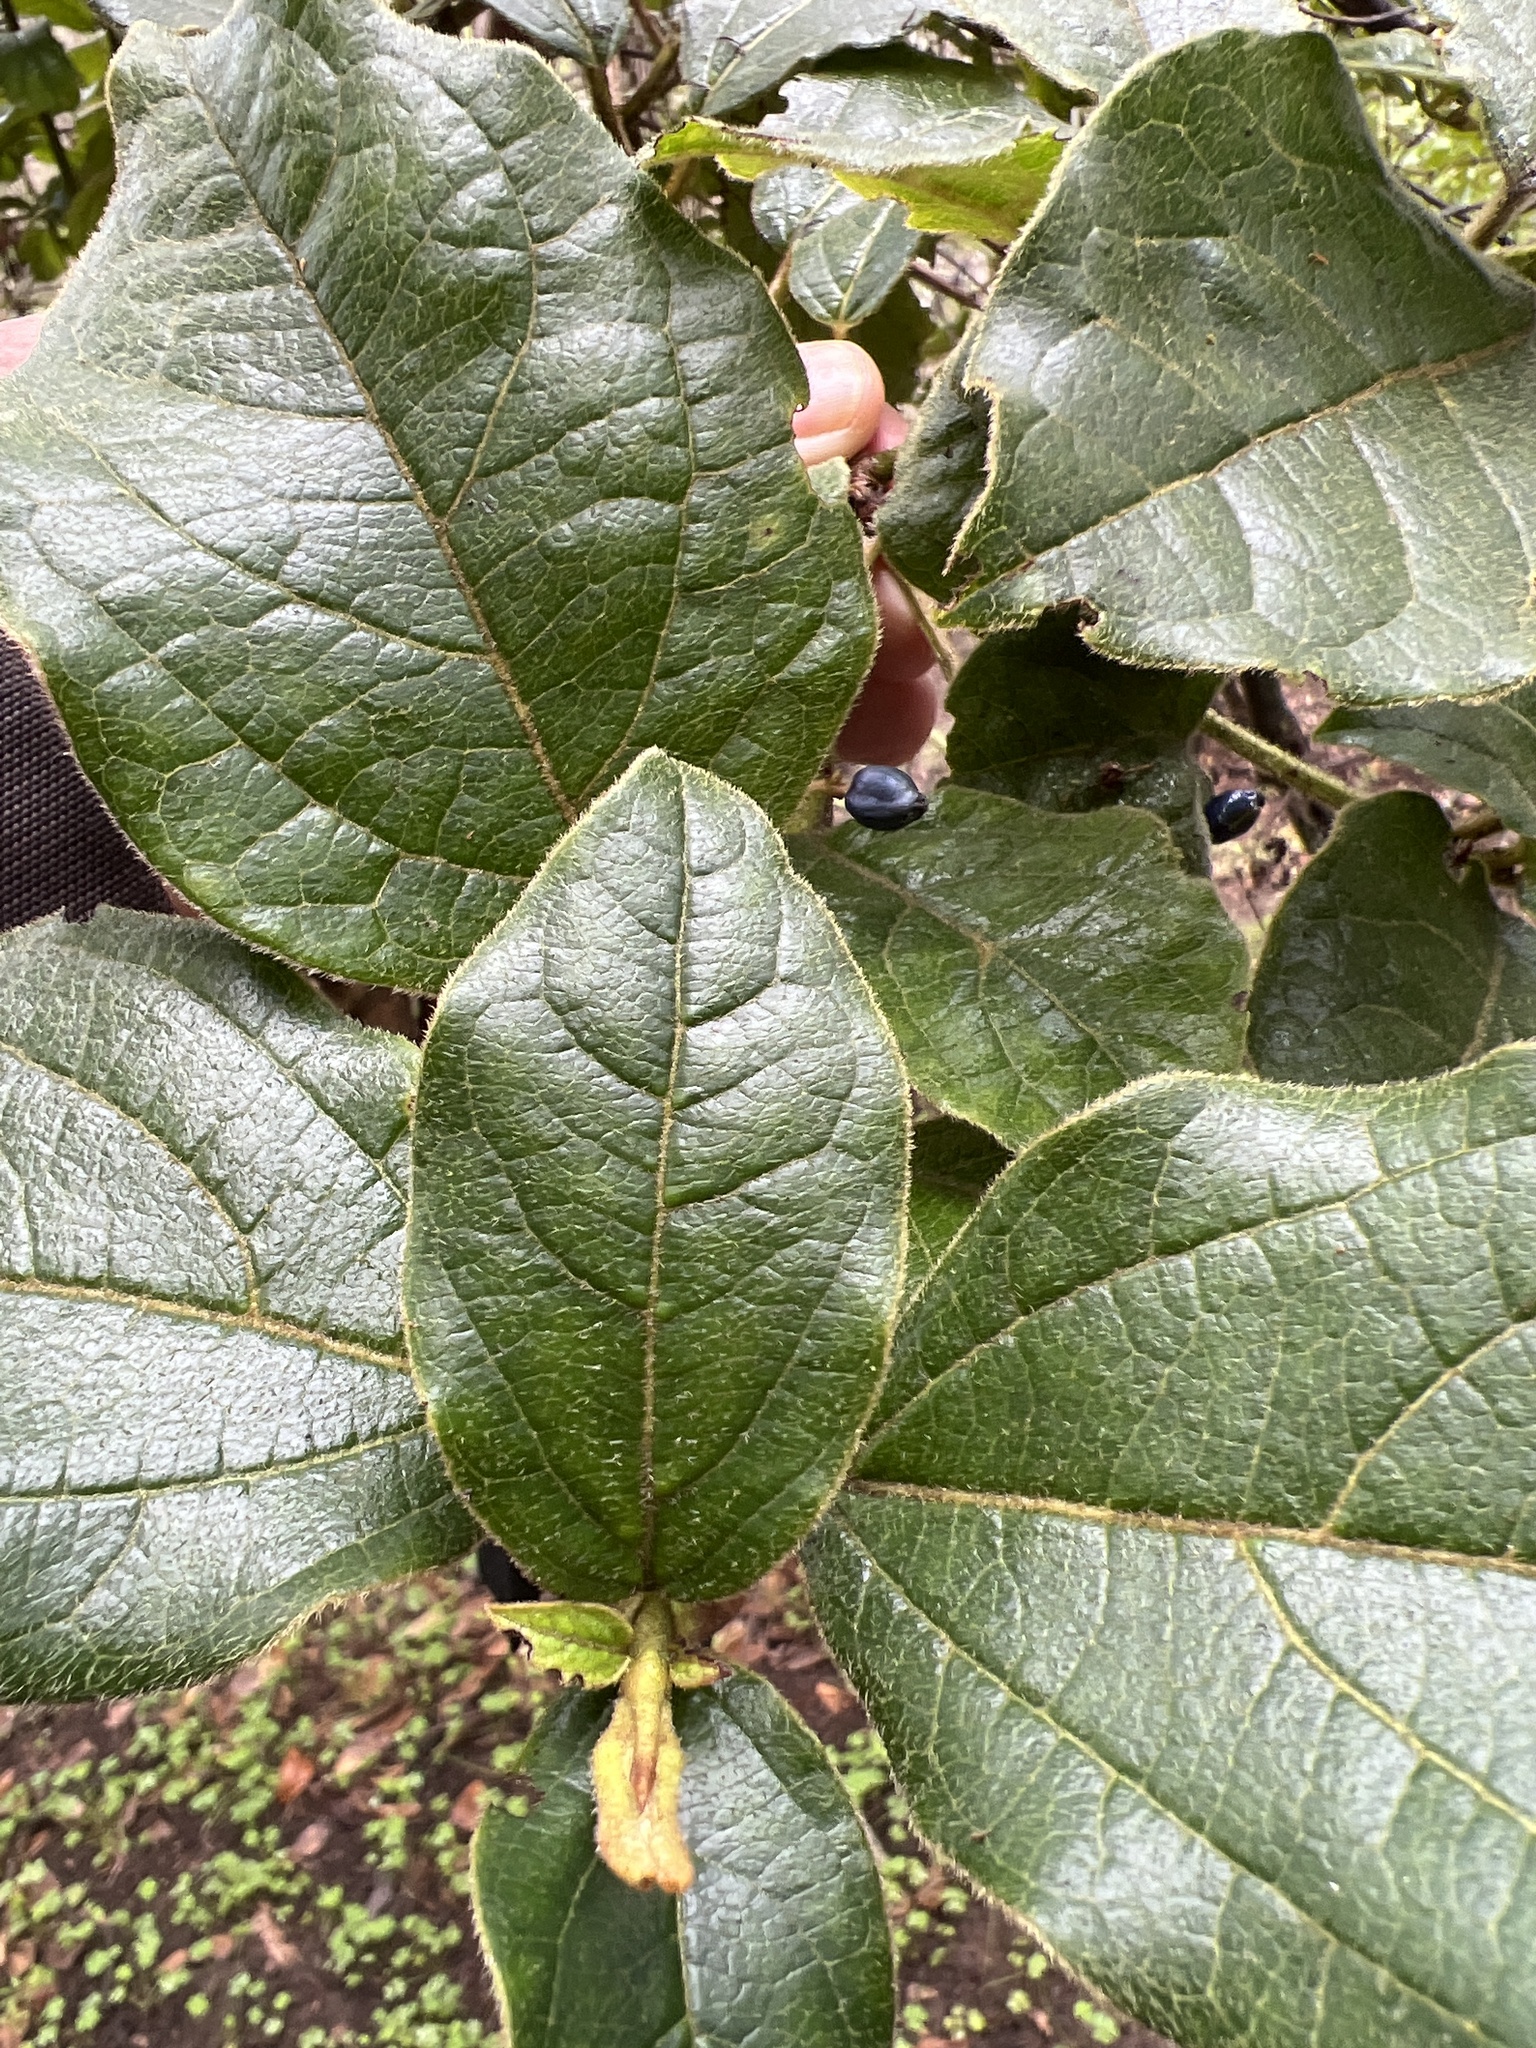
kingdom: Plantae
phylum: Tracheophyta
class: Magnoliopsida
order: Dipsacales
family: Viburnaceae
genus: Viburnum
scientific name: Viburnum rugosum
